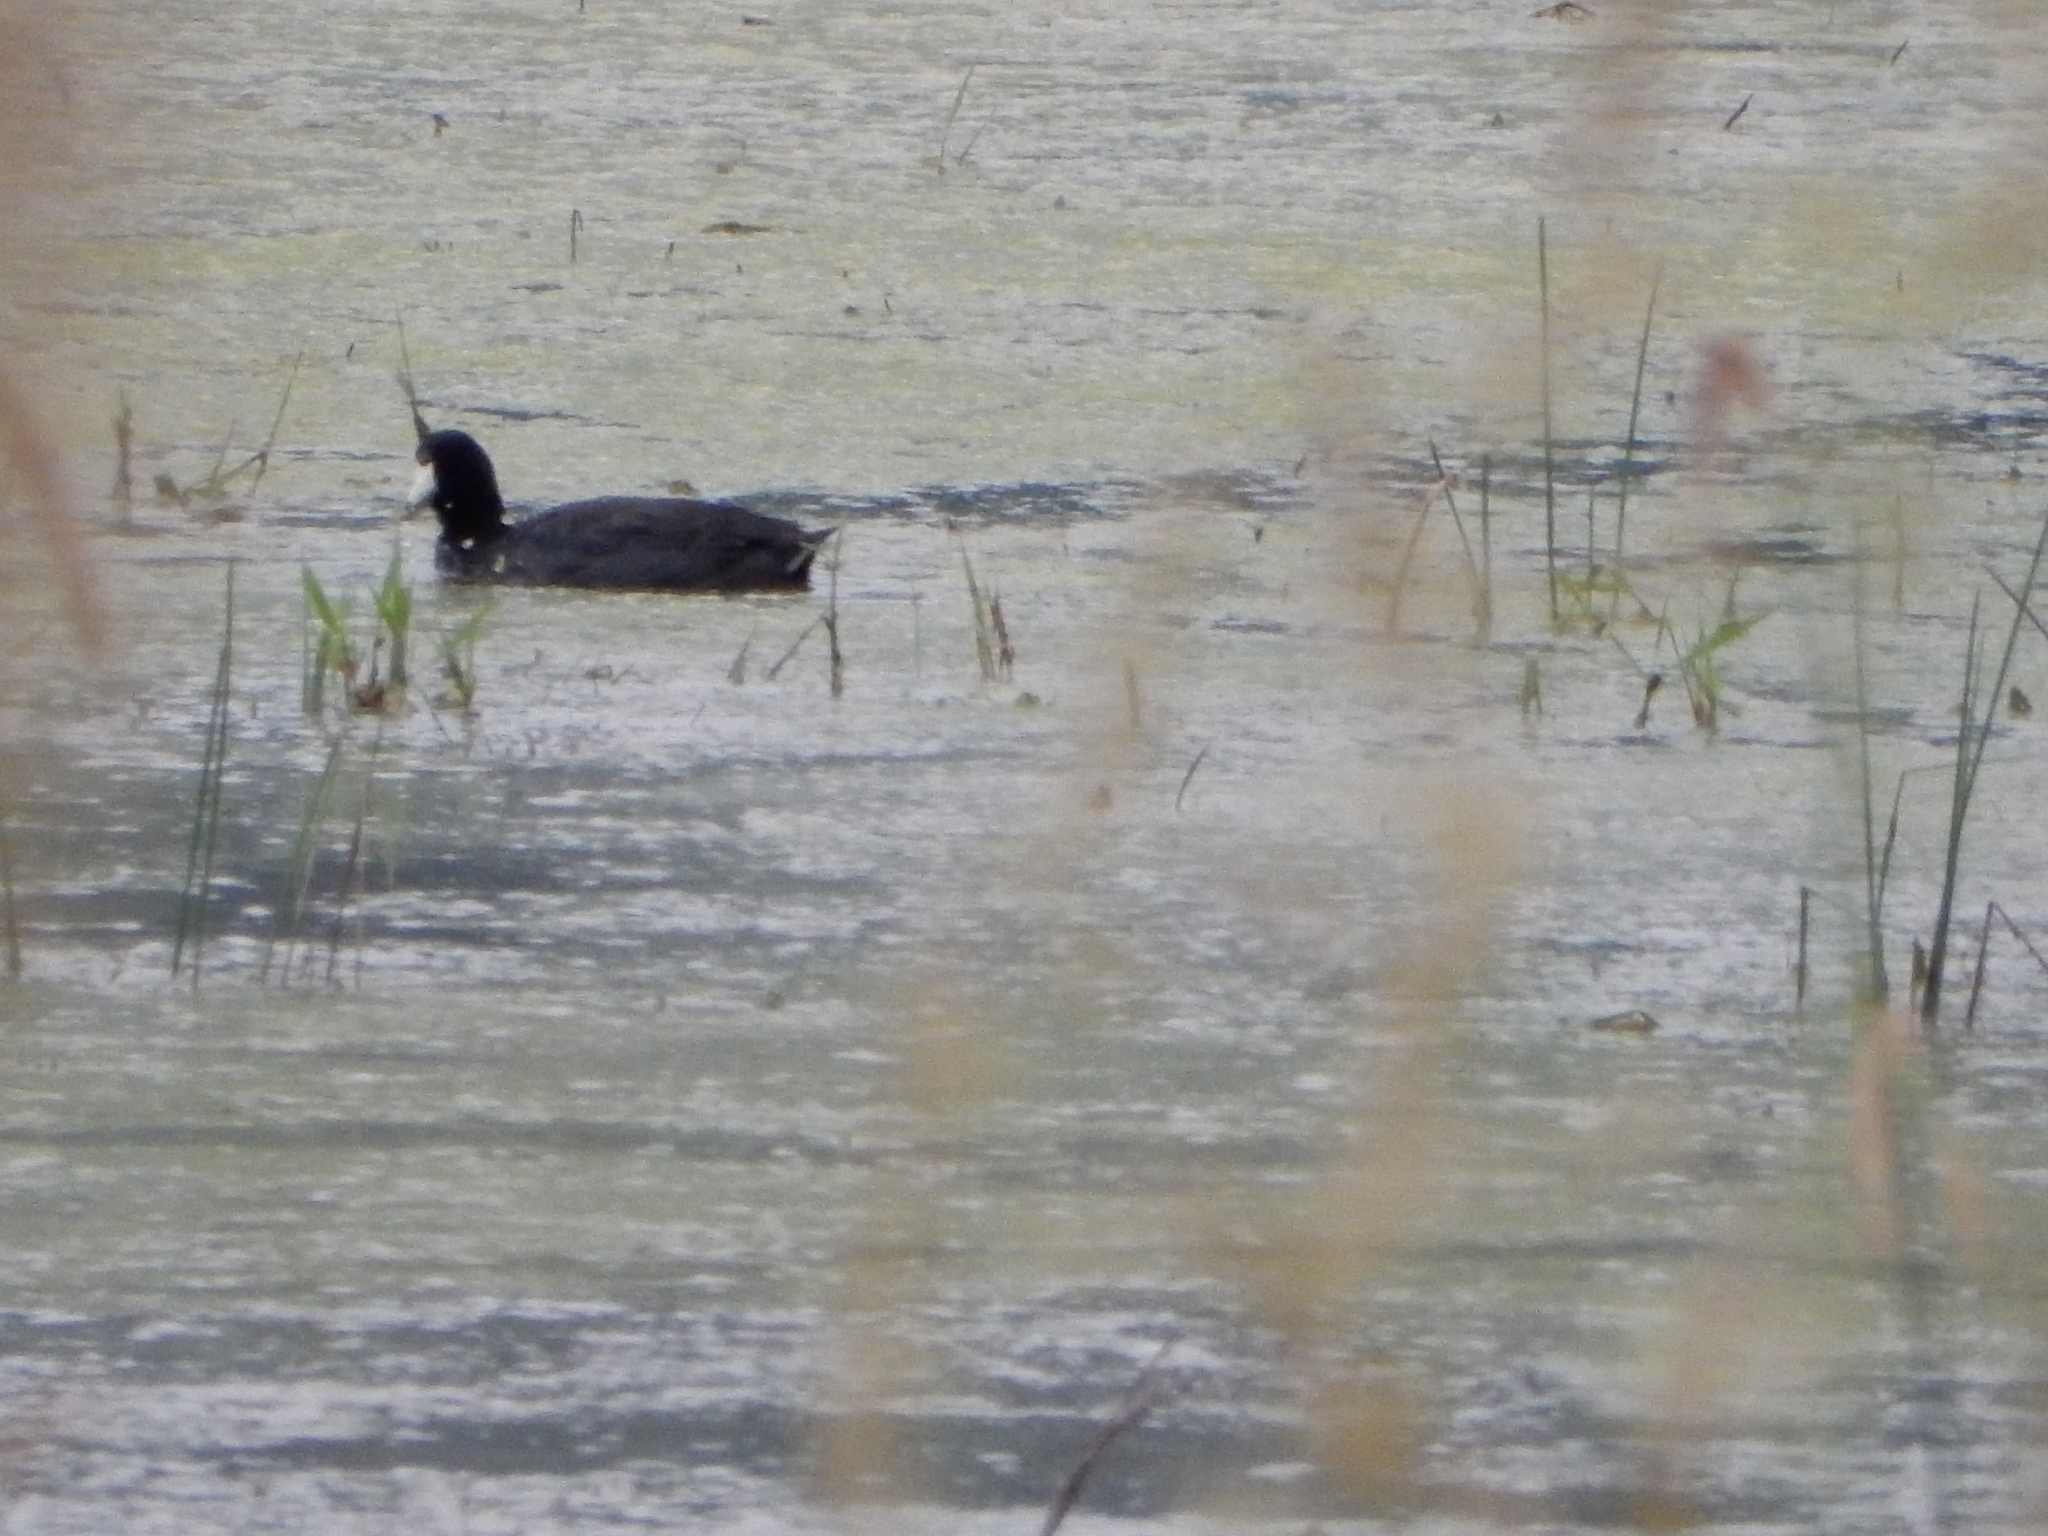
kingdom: Animalia
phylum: Chordata
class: Aves
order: Gruiformes
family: Rallidae
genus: Fulica
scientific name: Fulica americana
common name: American coot
